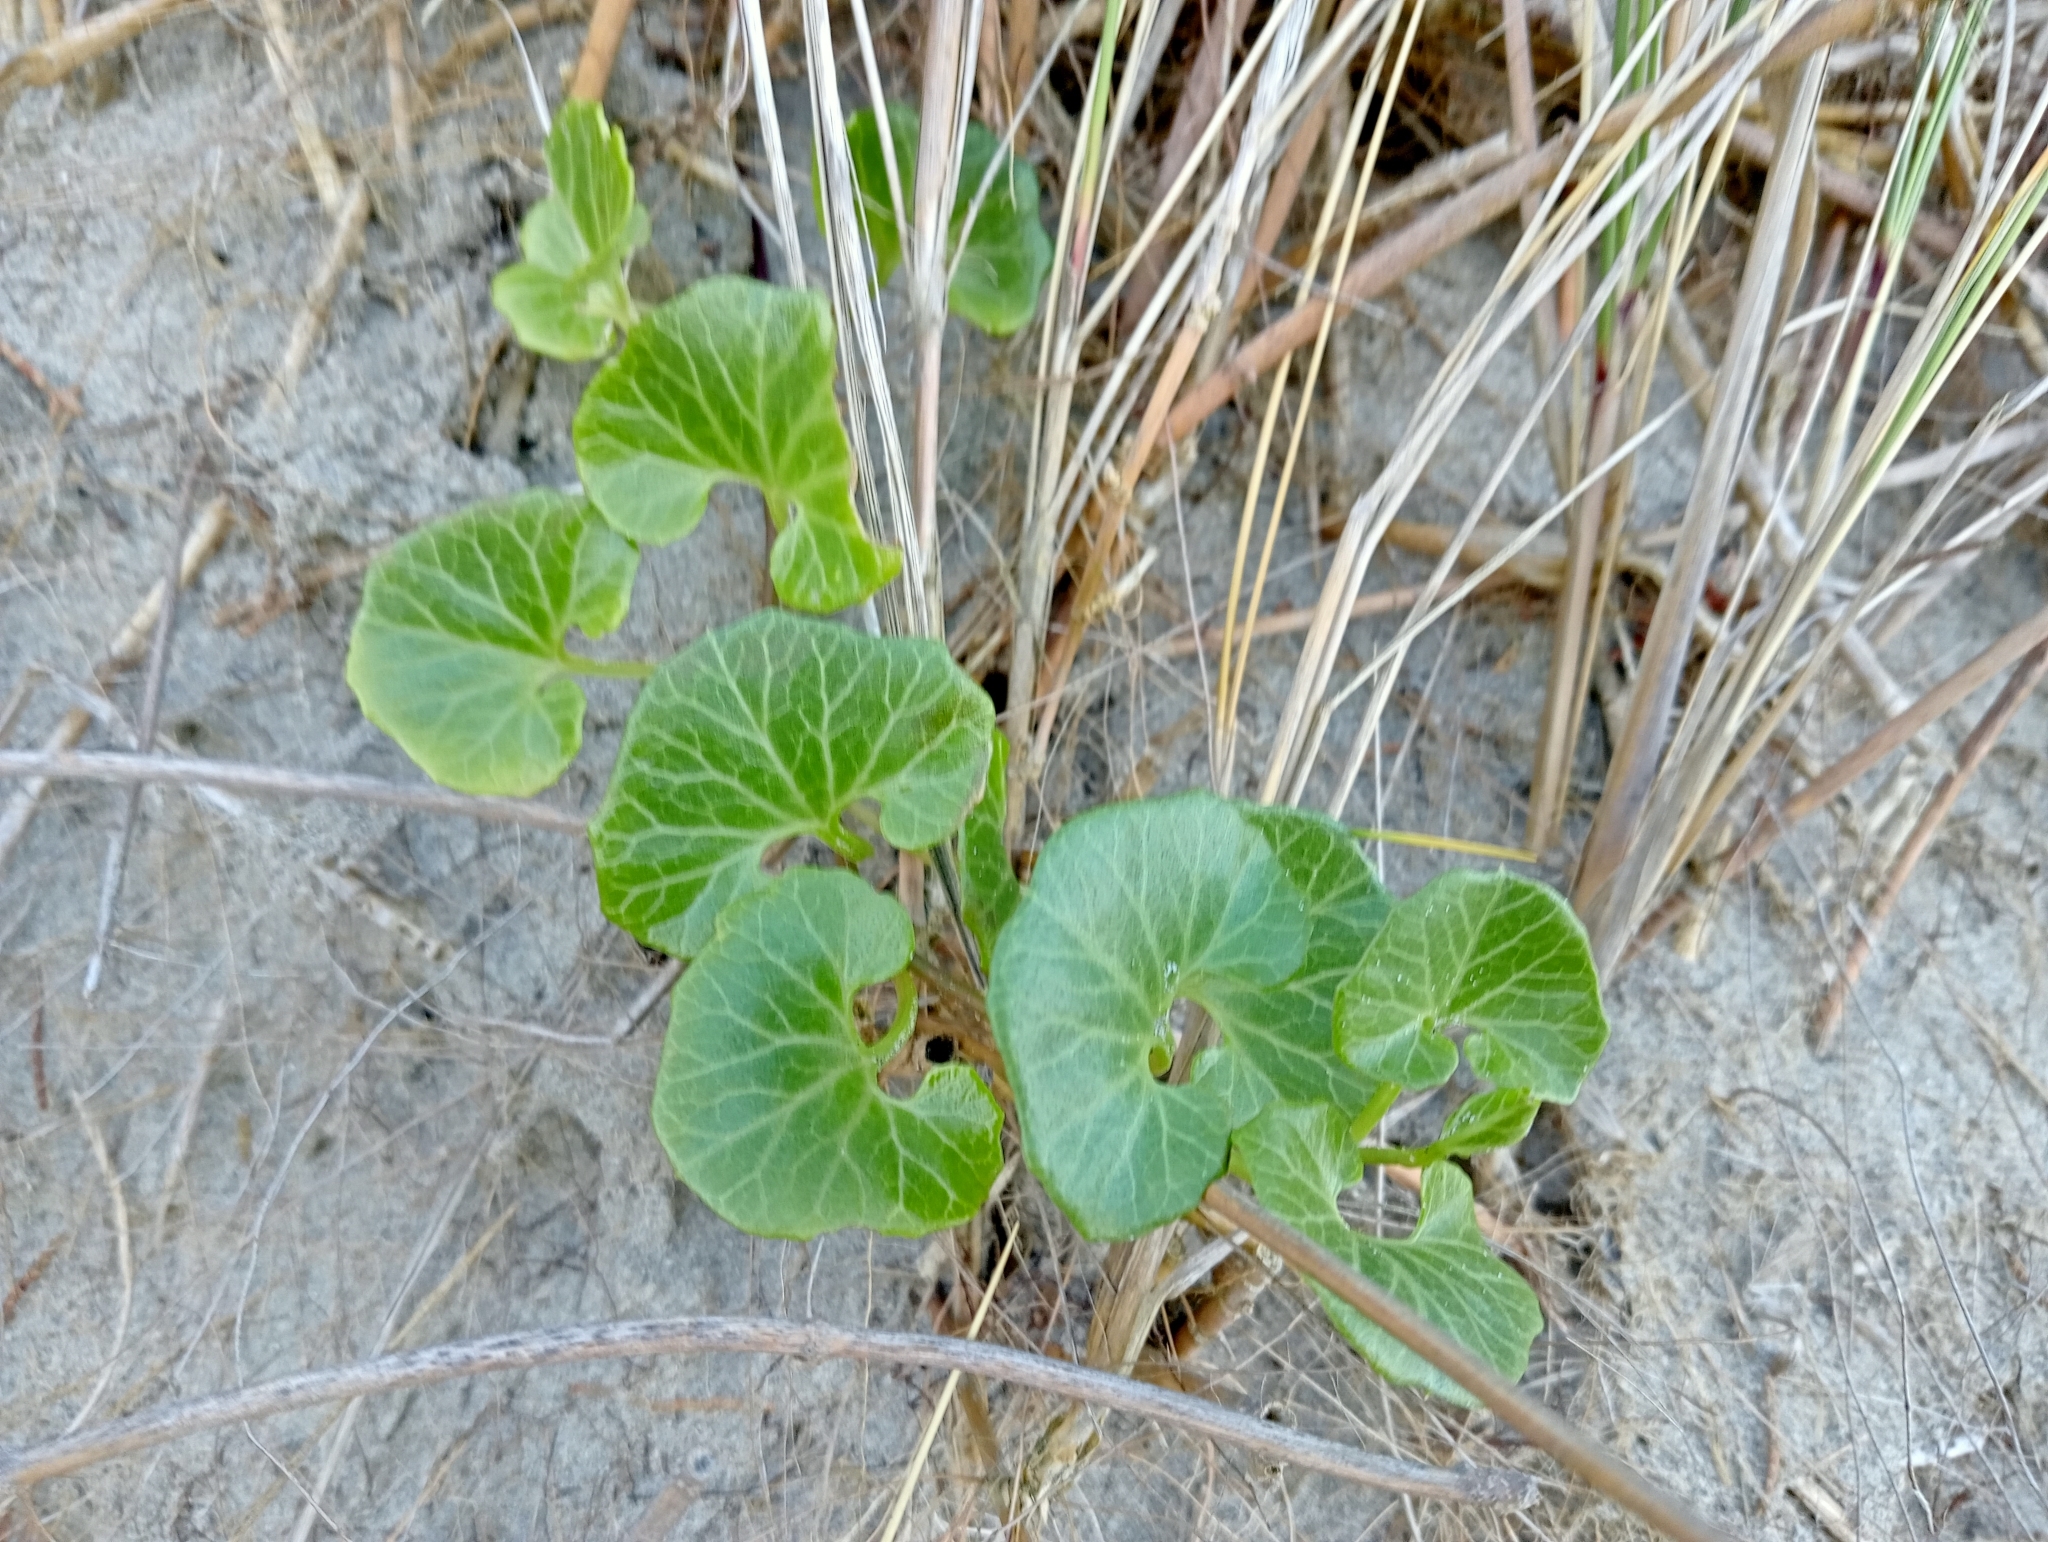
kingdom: Plantae
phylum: Tracheophyta
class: Magnoliopsida
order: Solanales
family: Convolvulaceae
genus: Calystegia
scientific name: Calystegia soldanella
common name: Sea bindweed
